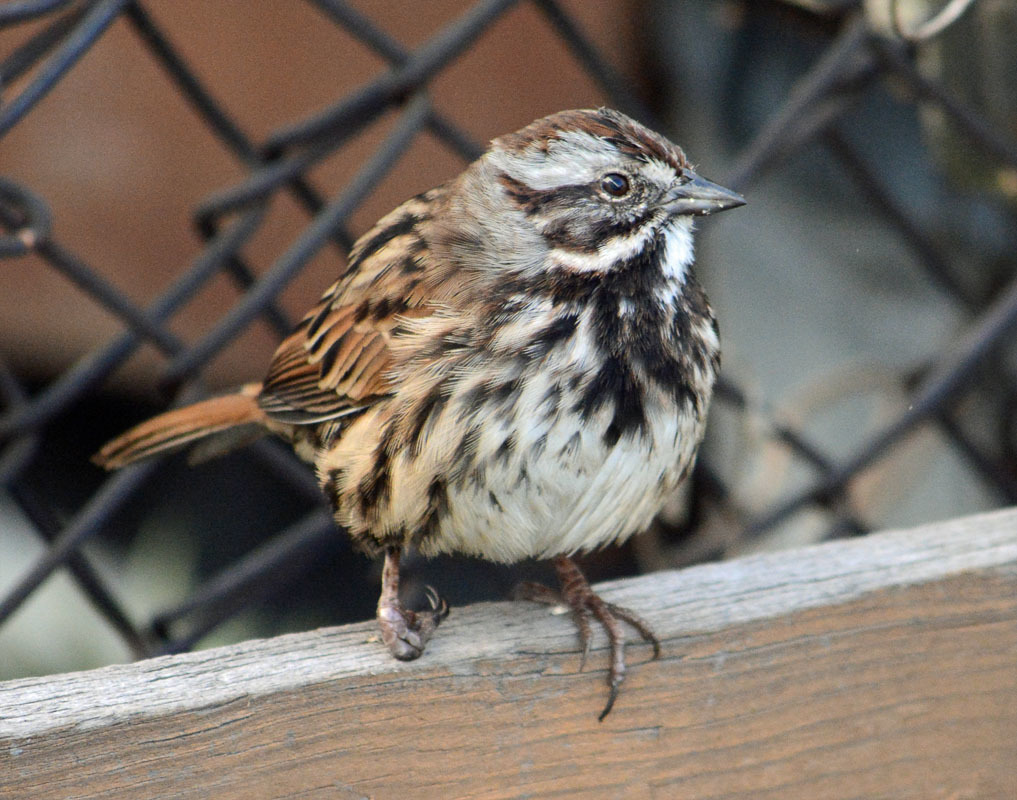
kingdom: Animalia
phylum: Chordata
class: Aves
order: Passeriformes
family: Passerellidae
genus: Melospiza
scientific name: Melospiza melodia
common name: Song sparrow
